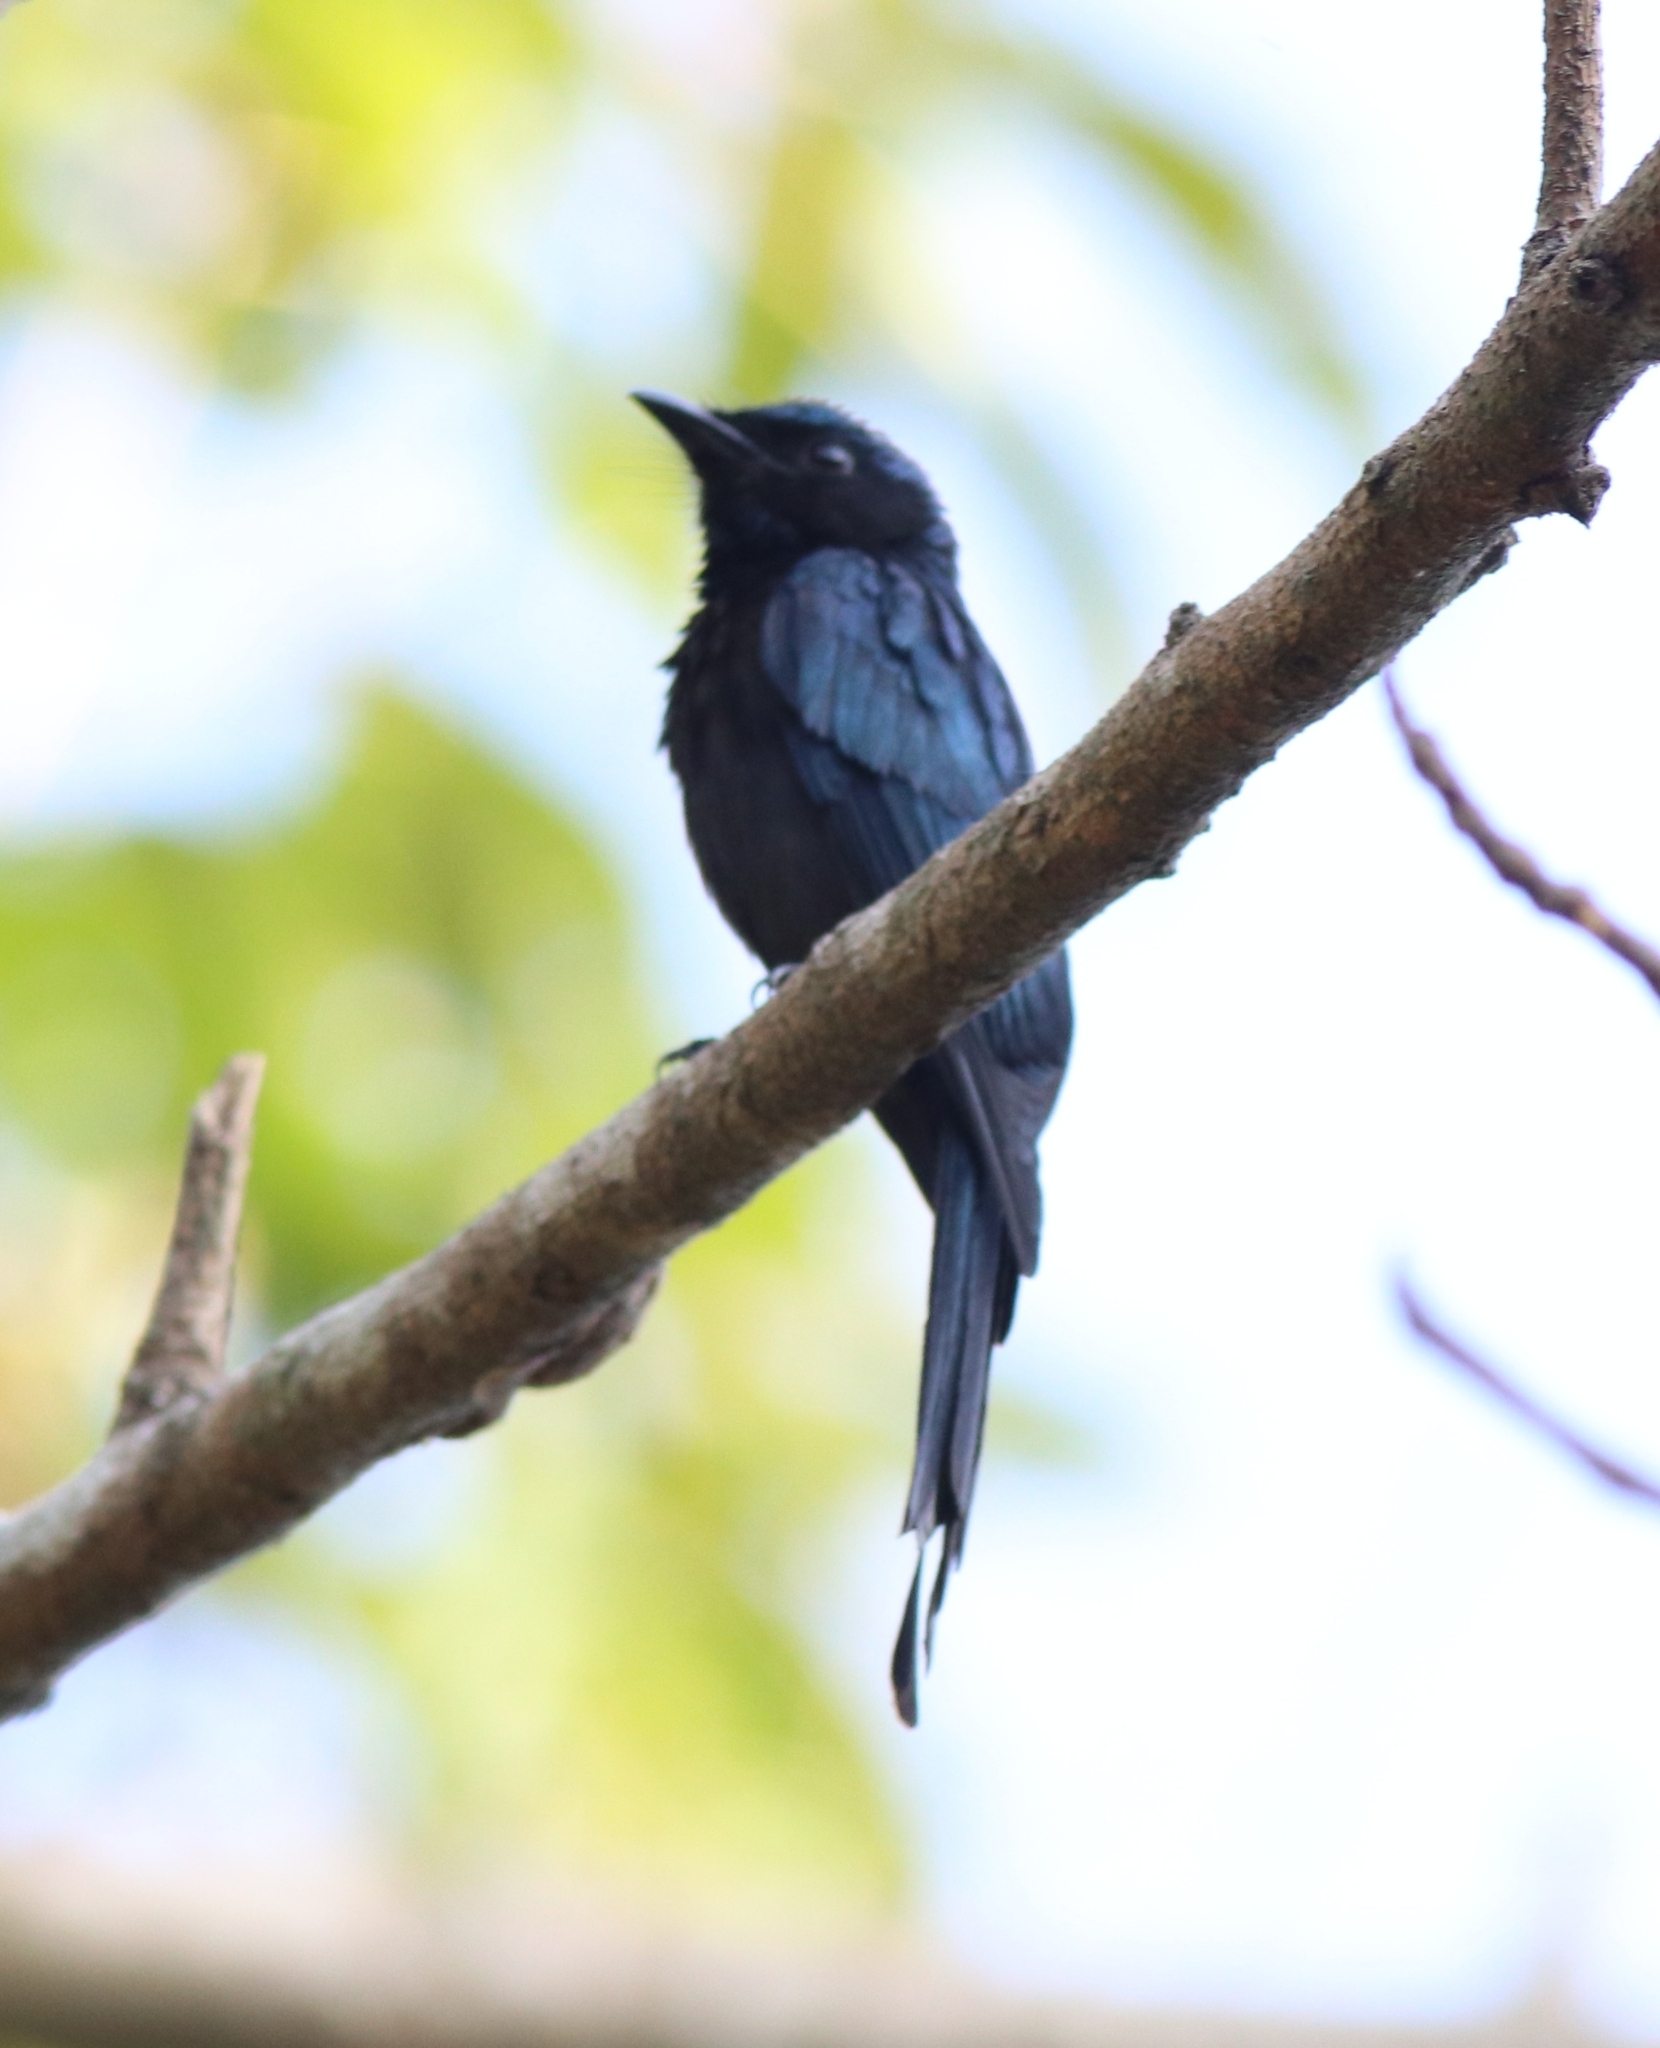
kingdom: Animalia
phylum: Chordata
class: Aves
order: Passeriformes
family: Dicruridae
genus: Dicrurus
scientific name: Dicrurus aeneus
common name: Bronzed drongo
